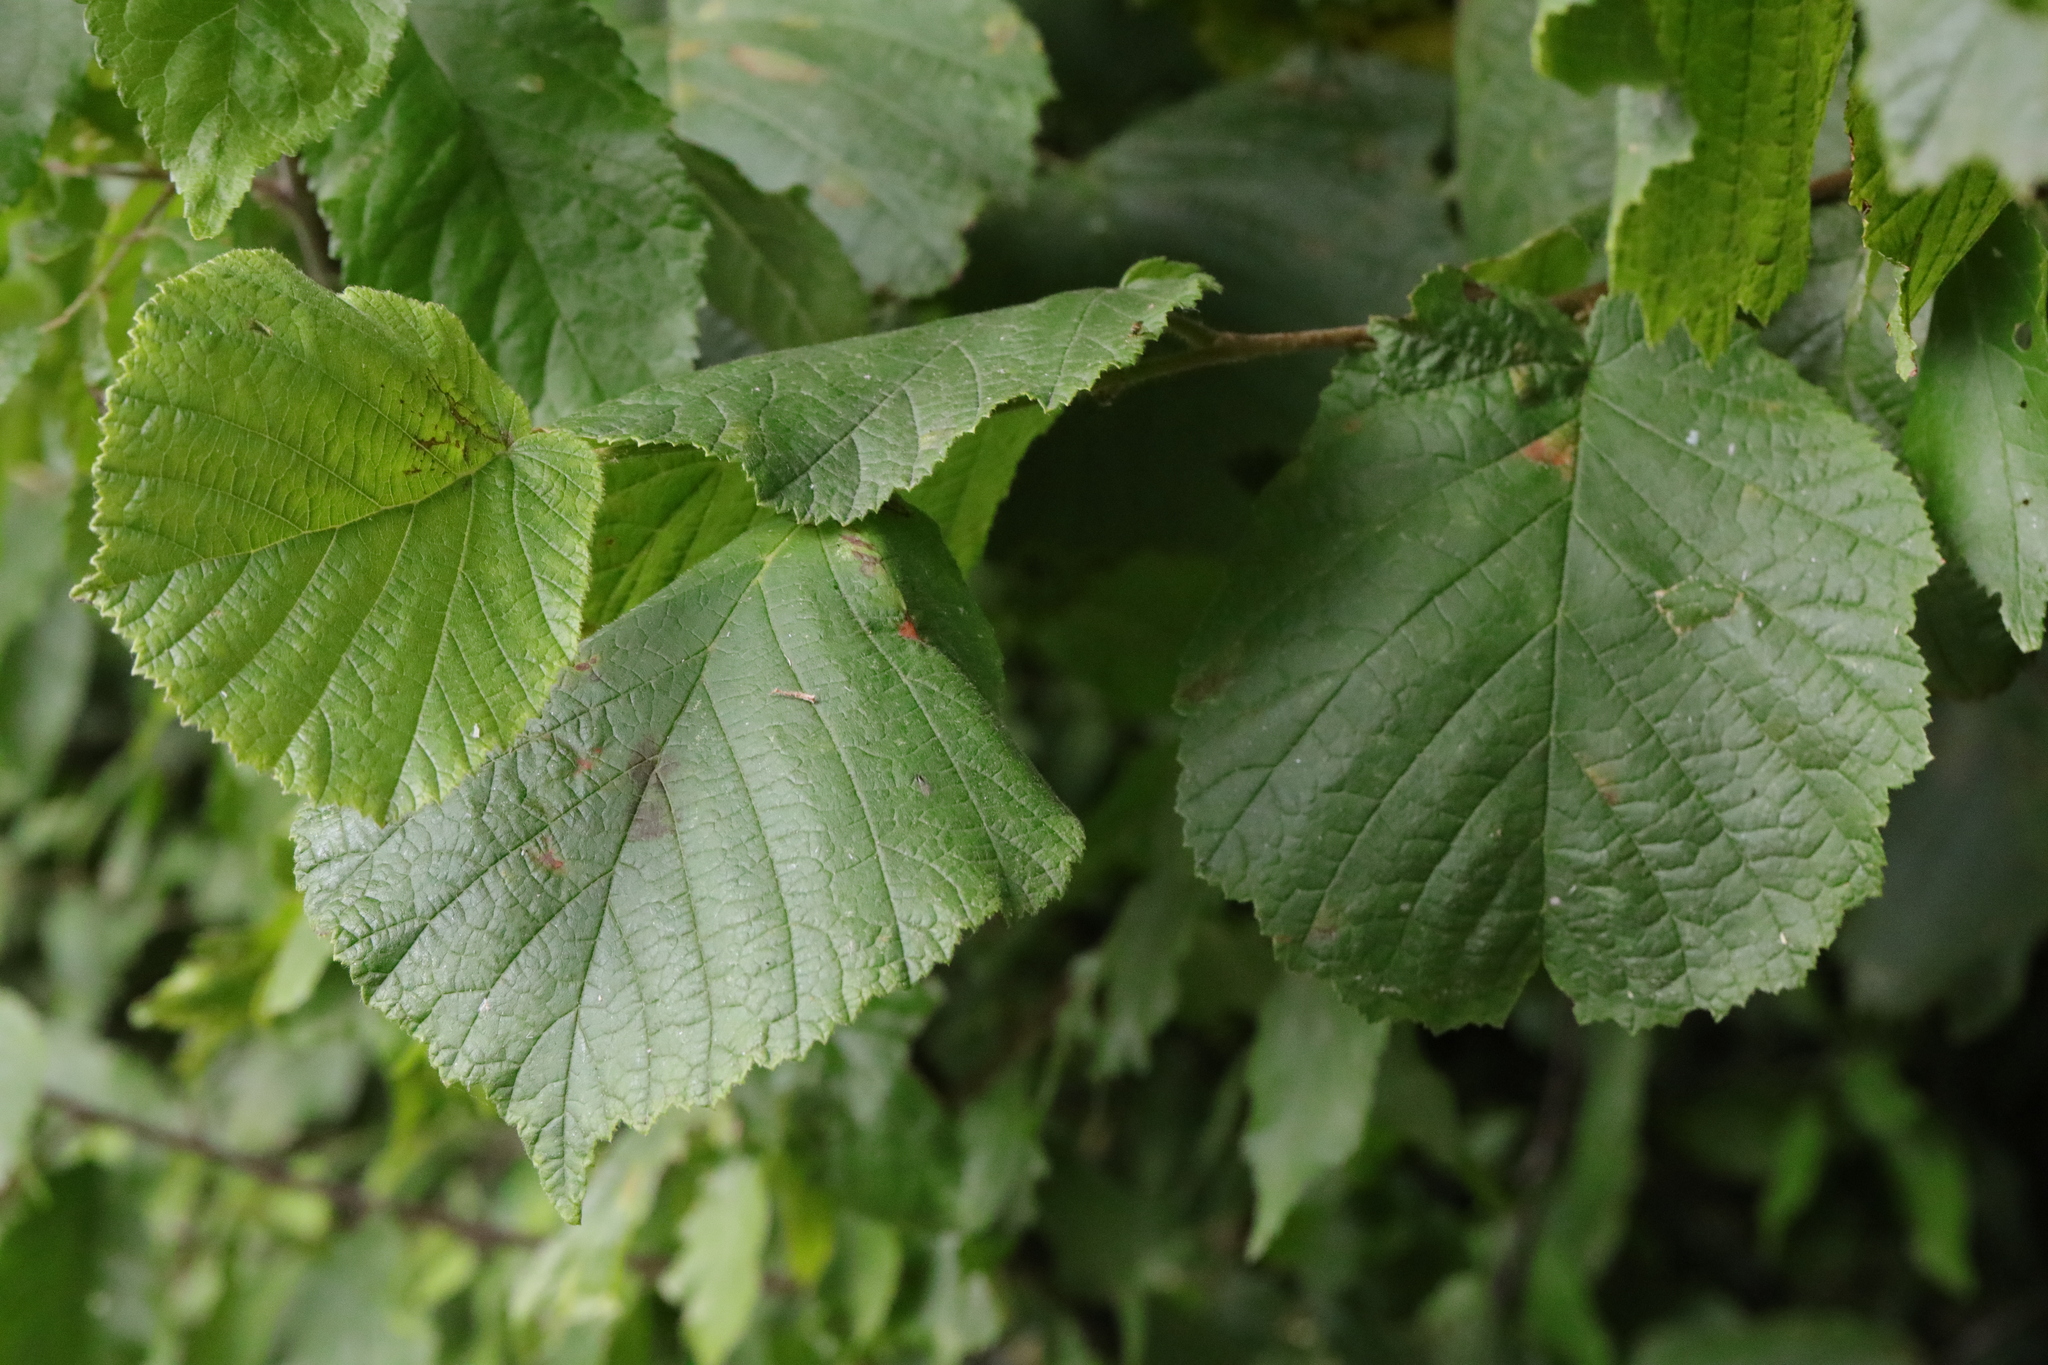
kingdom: Plantae
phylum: Tracheophyta
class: Magnoliopsida
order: Fagales
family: Betulaceae
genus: Corylus
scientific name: Corylus avellana
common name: European hazel
